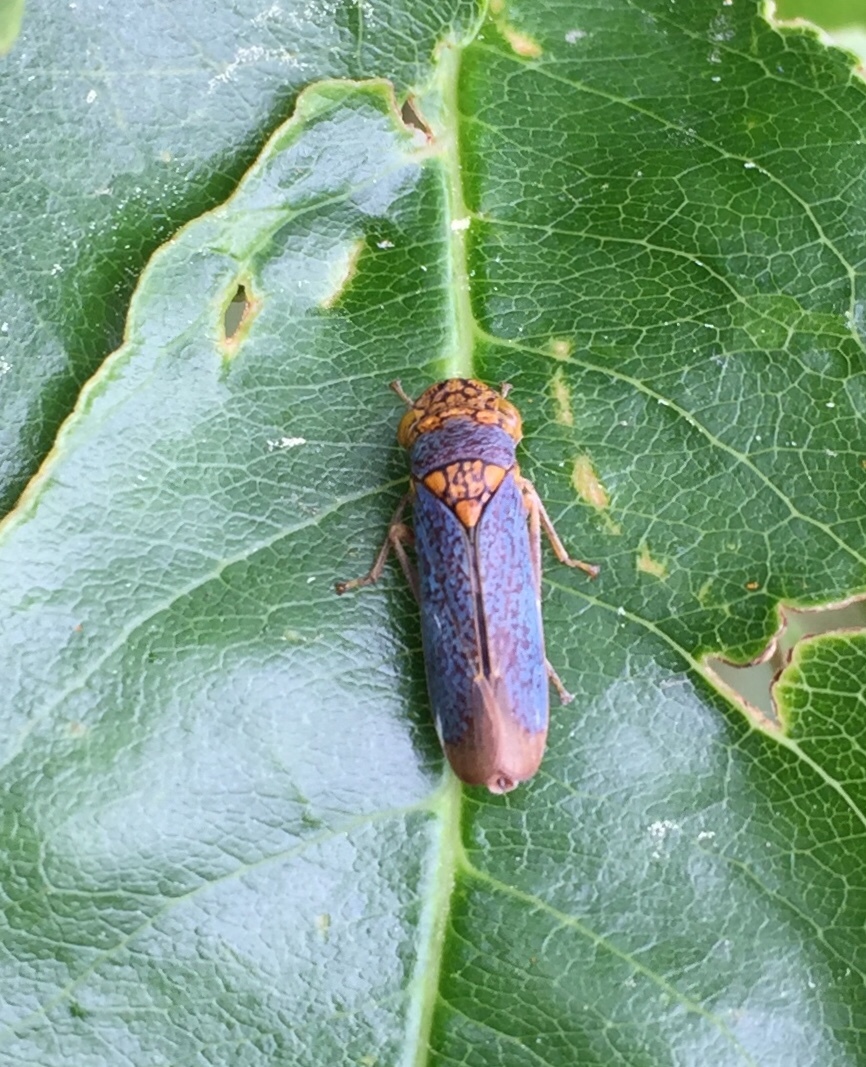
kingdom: Animalia
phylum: Arthropoda
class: Insecta
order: Hemiptera
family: Cicadellidae
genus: Oncometopia
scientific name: Oncometopia orbona
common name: Broad-headed sharpshooter
